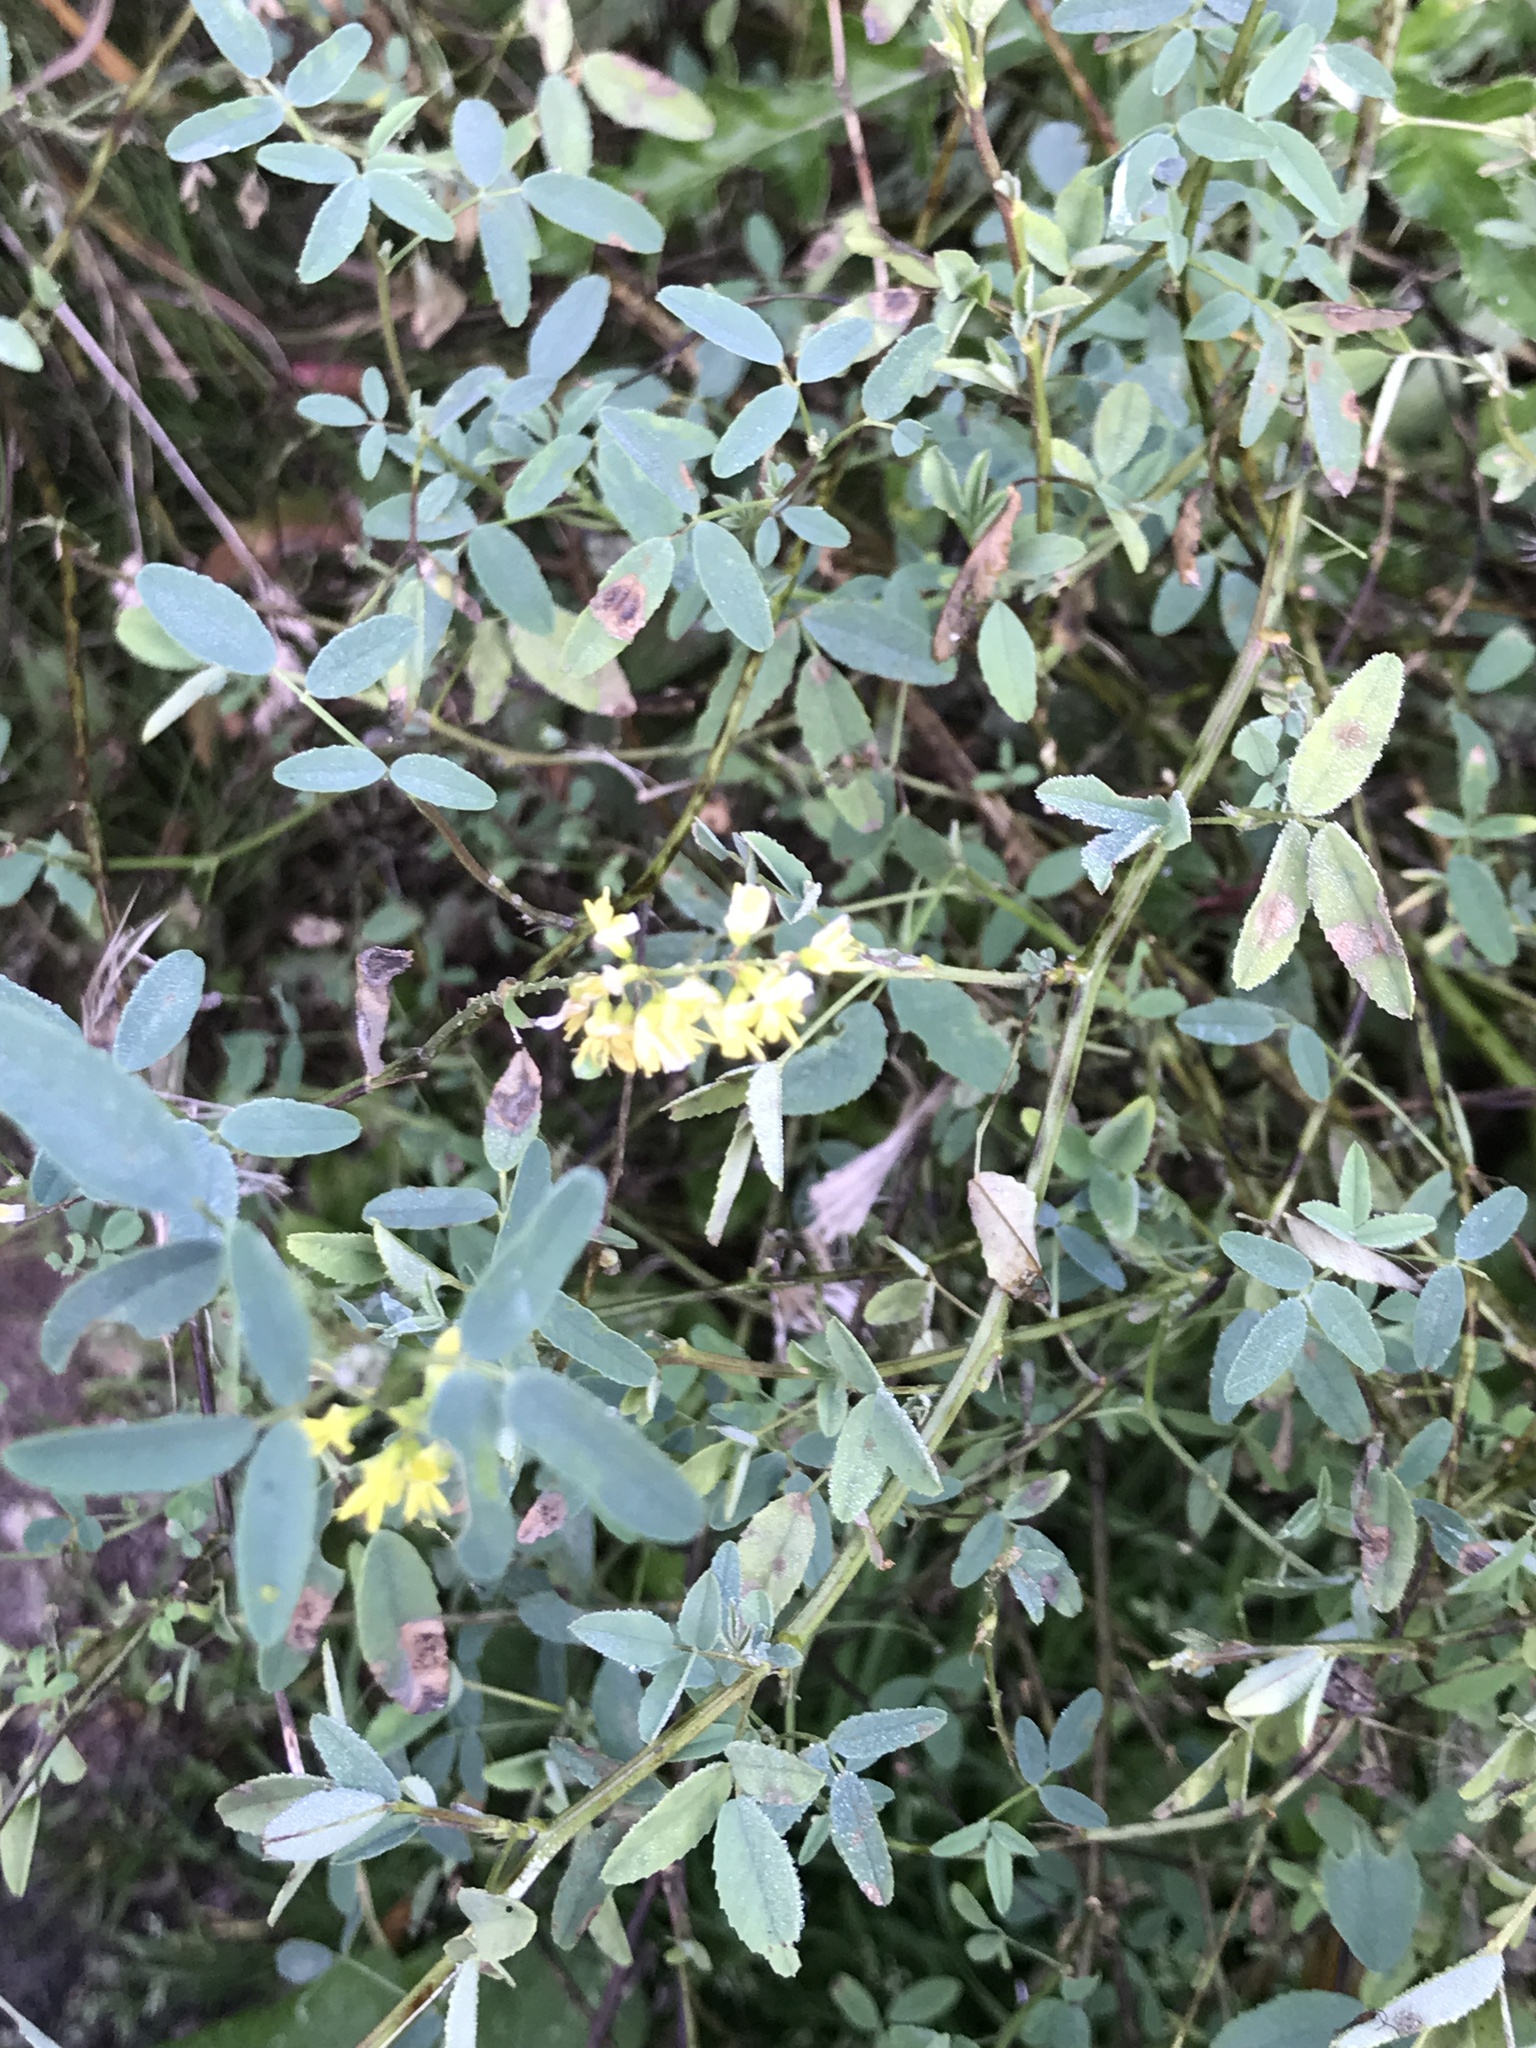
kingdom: Plantae
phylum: Tracheophyta
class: Magnoliopsida
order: Fabales
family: Fabaceae
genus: Melilotus
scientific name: Melilotus officinalis
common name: Sweetclover
